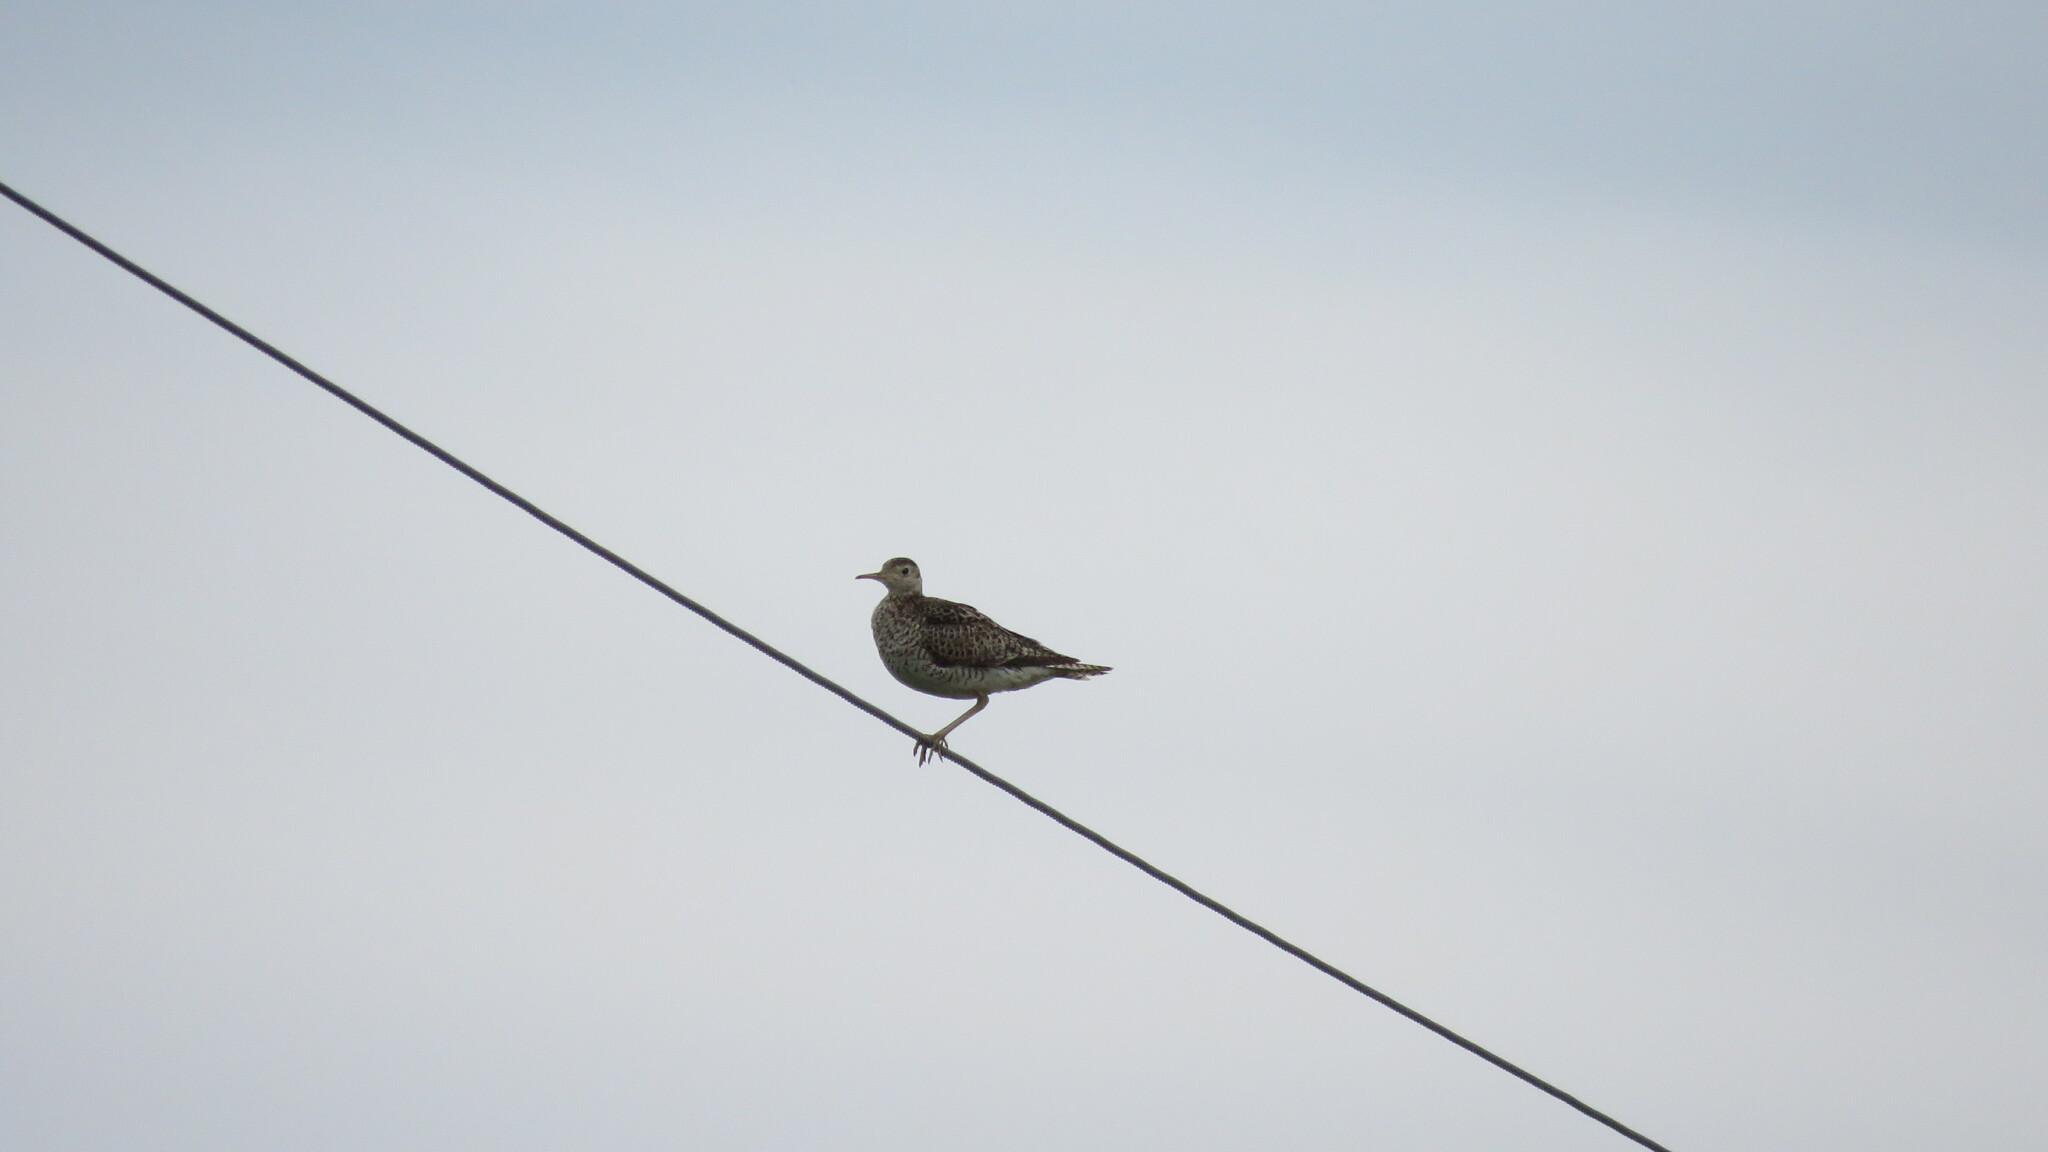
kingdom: Animalia
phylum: Chordata
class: Aves
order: Charadriiformes
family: Scolopacidae
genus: Bartramia
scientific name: Bartramia longicauda
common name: Upland sandpiper
